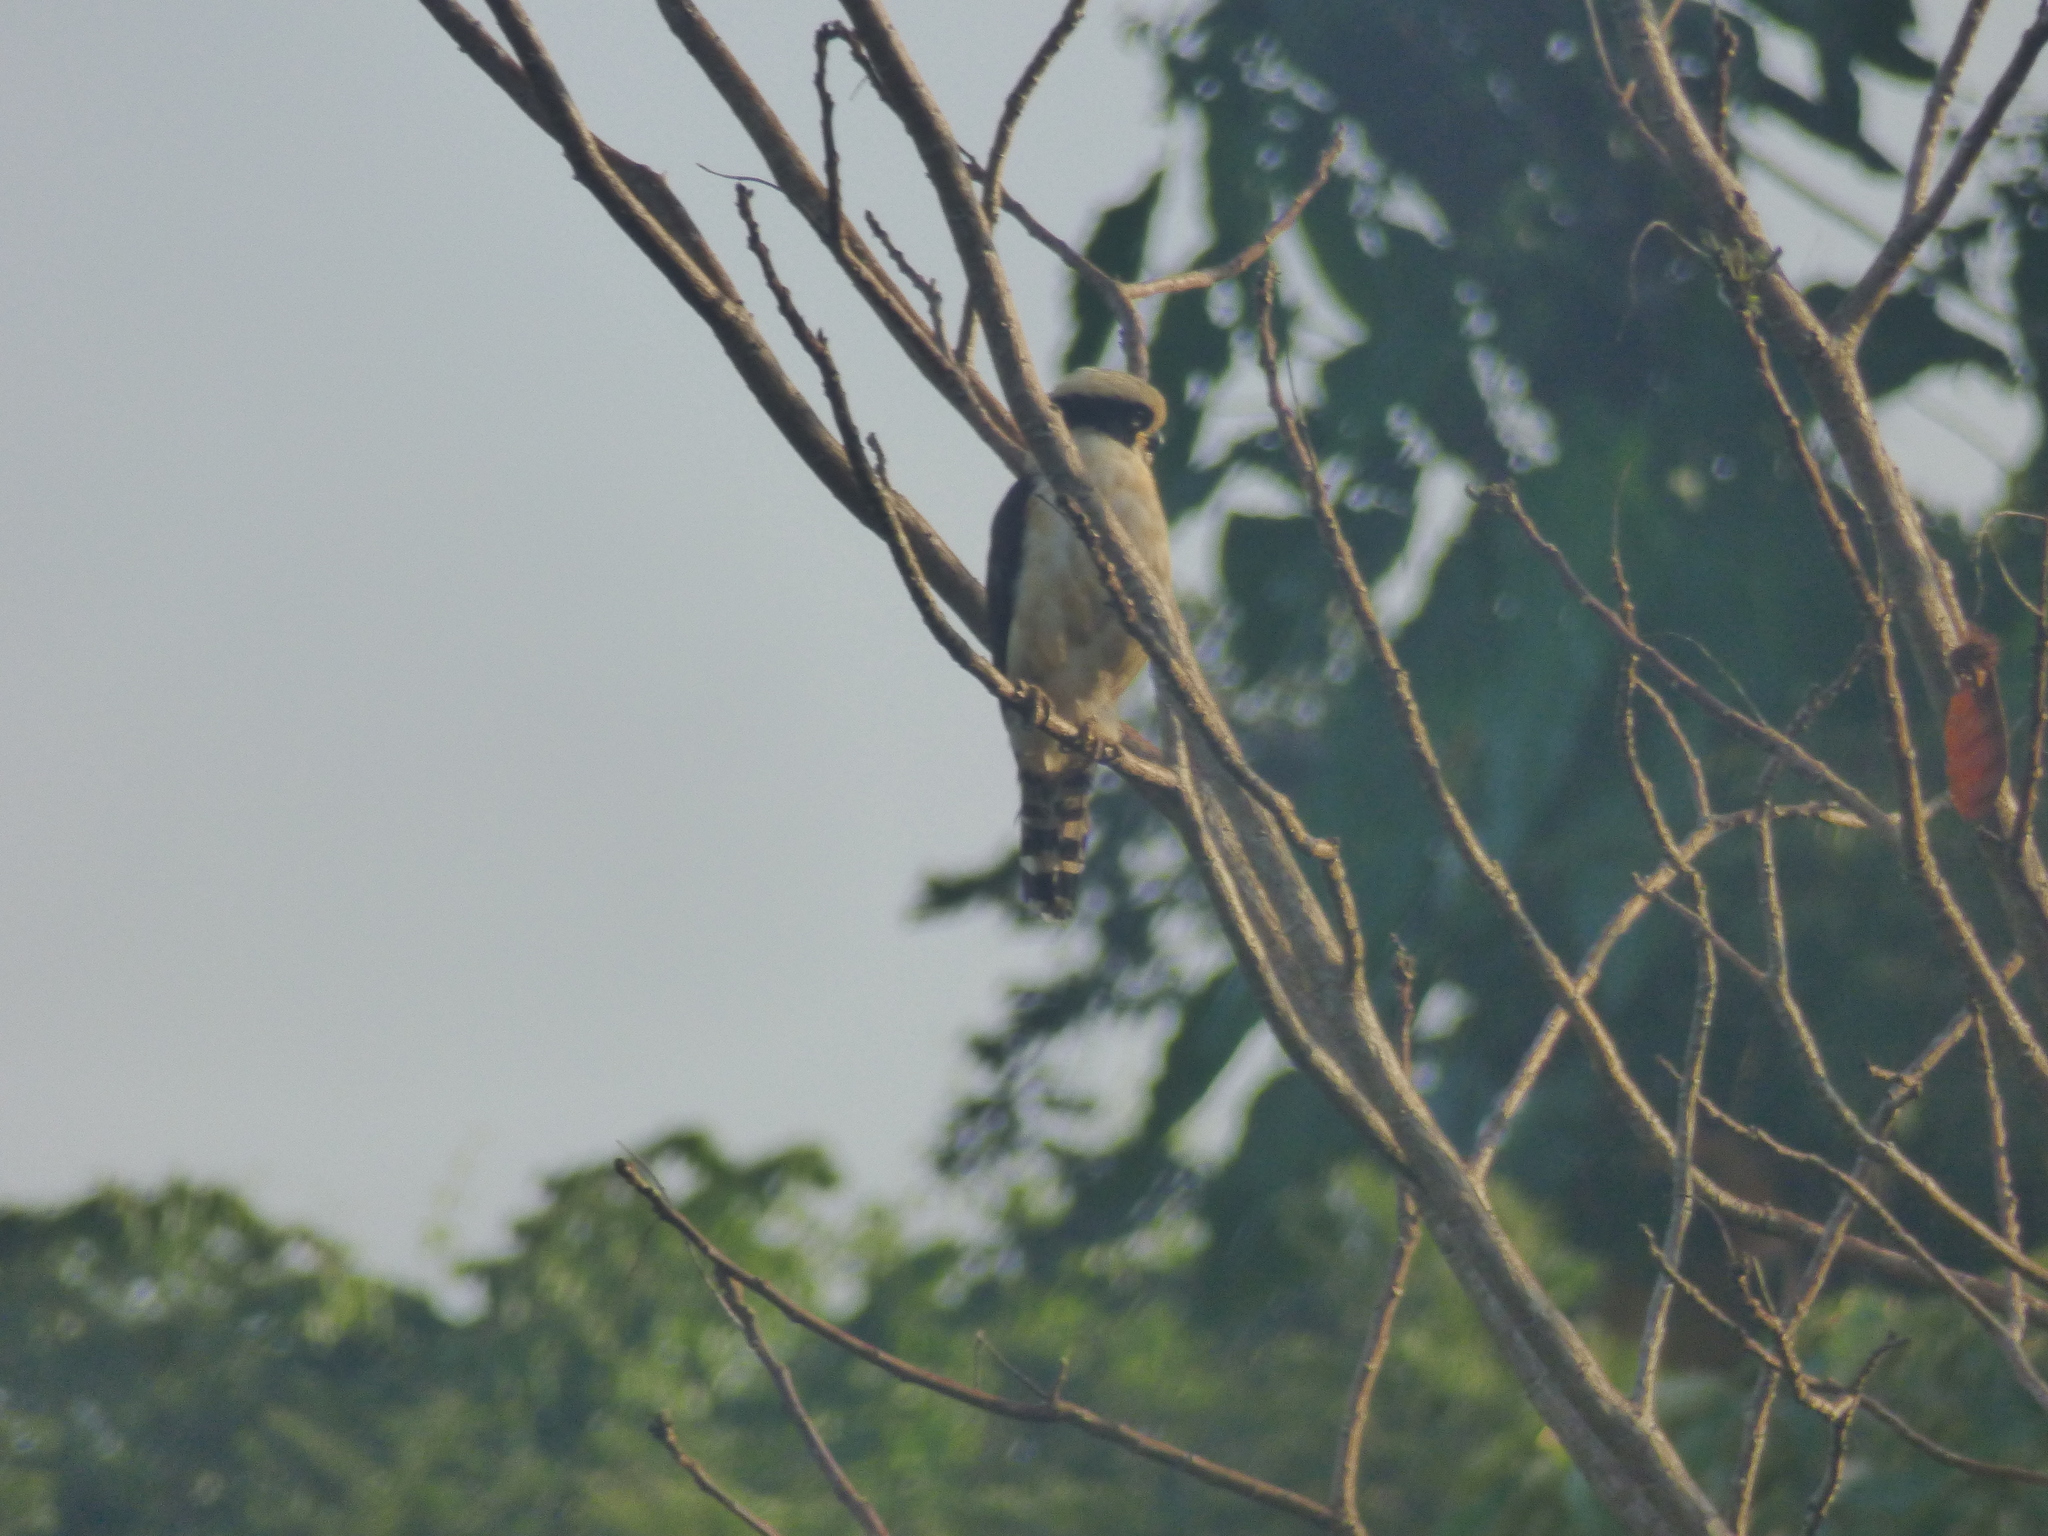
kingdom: Animalia
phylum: Chordata
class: Aves
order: Falconiformes
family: Falconidae
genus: Herpetotheres
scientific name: Herpetotheres cachinnans
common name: Laughing falcon
